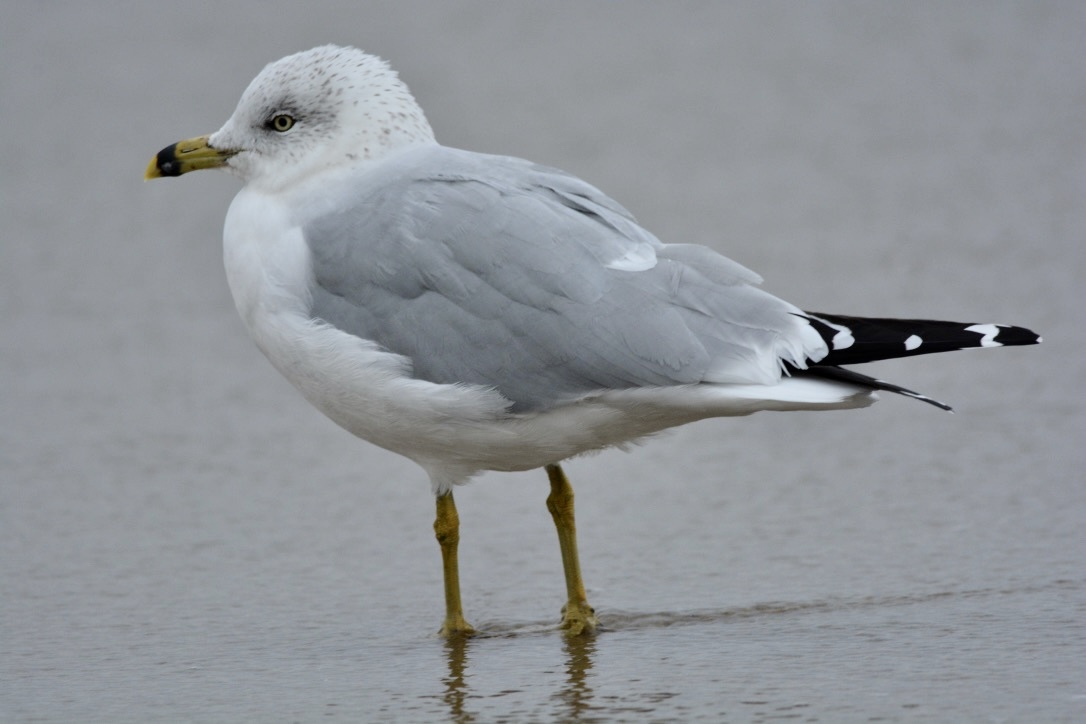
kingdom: Animalia
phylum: Chordata
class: Aves
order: Charadriiformes
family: Laridae
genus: Larus
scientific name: Larus delawarensis
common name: Ring-billed gull
